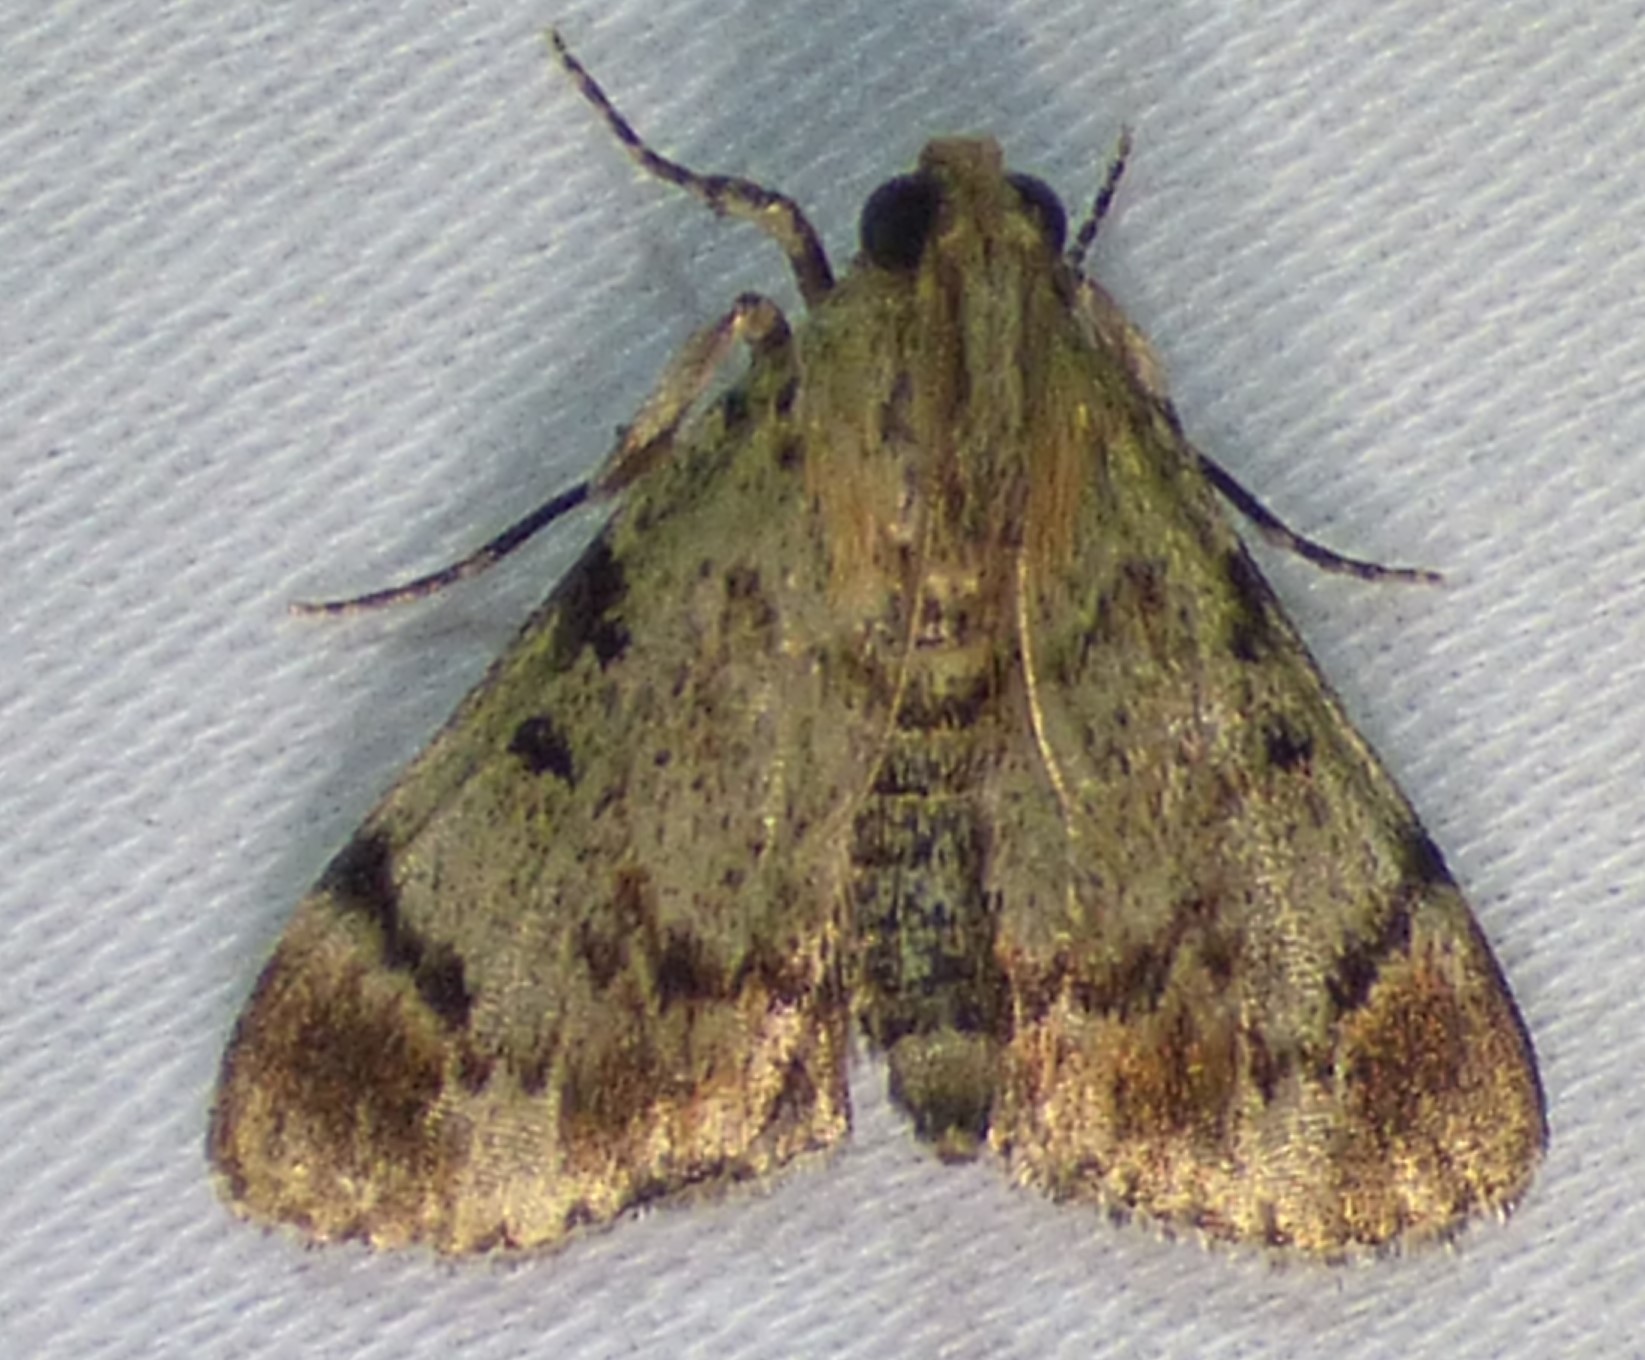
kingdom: Animalia
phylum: Arthropoda
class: Insecta
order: Lepidoptera
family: Pyralidae
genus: Epipaschia
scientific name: Epipaschia superatalis
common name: Dimorphic macalla moth
